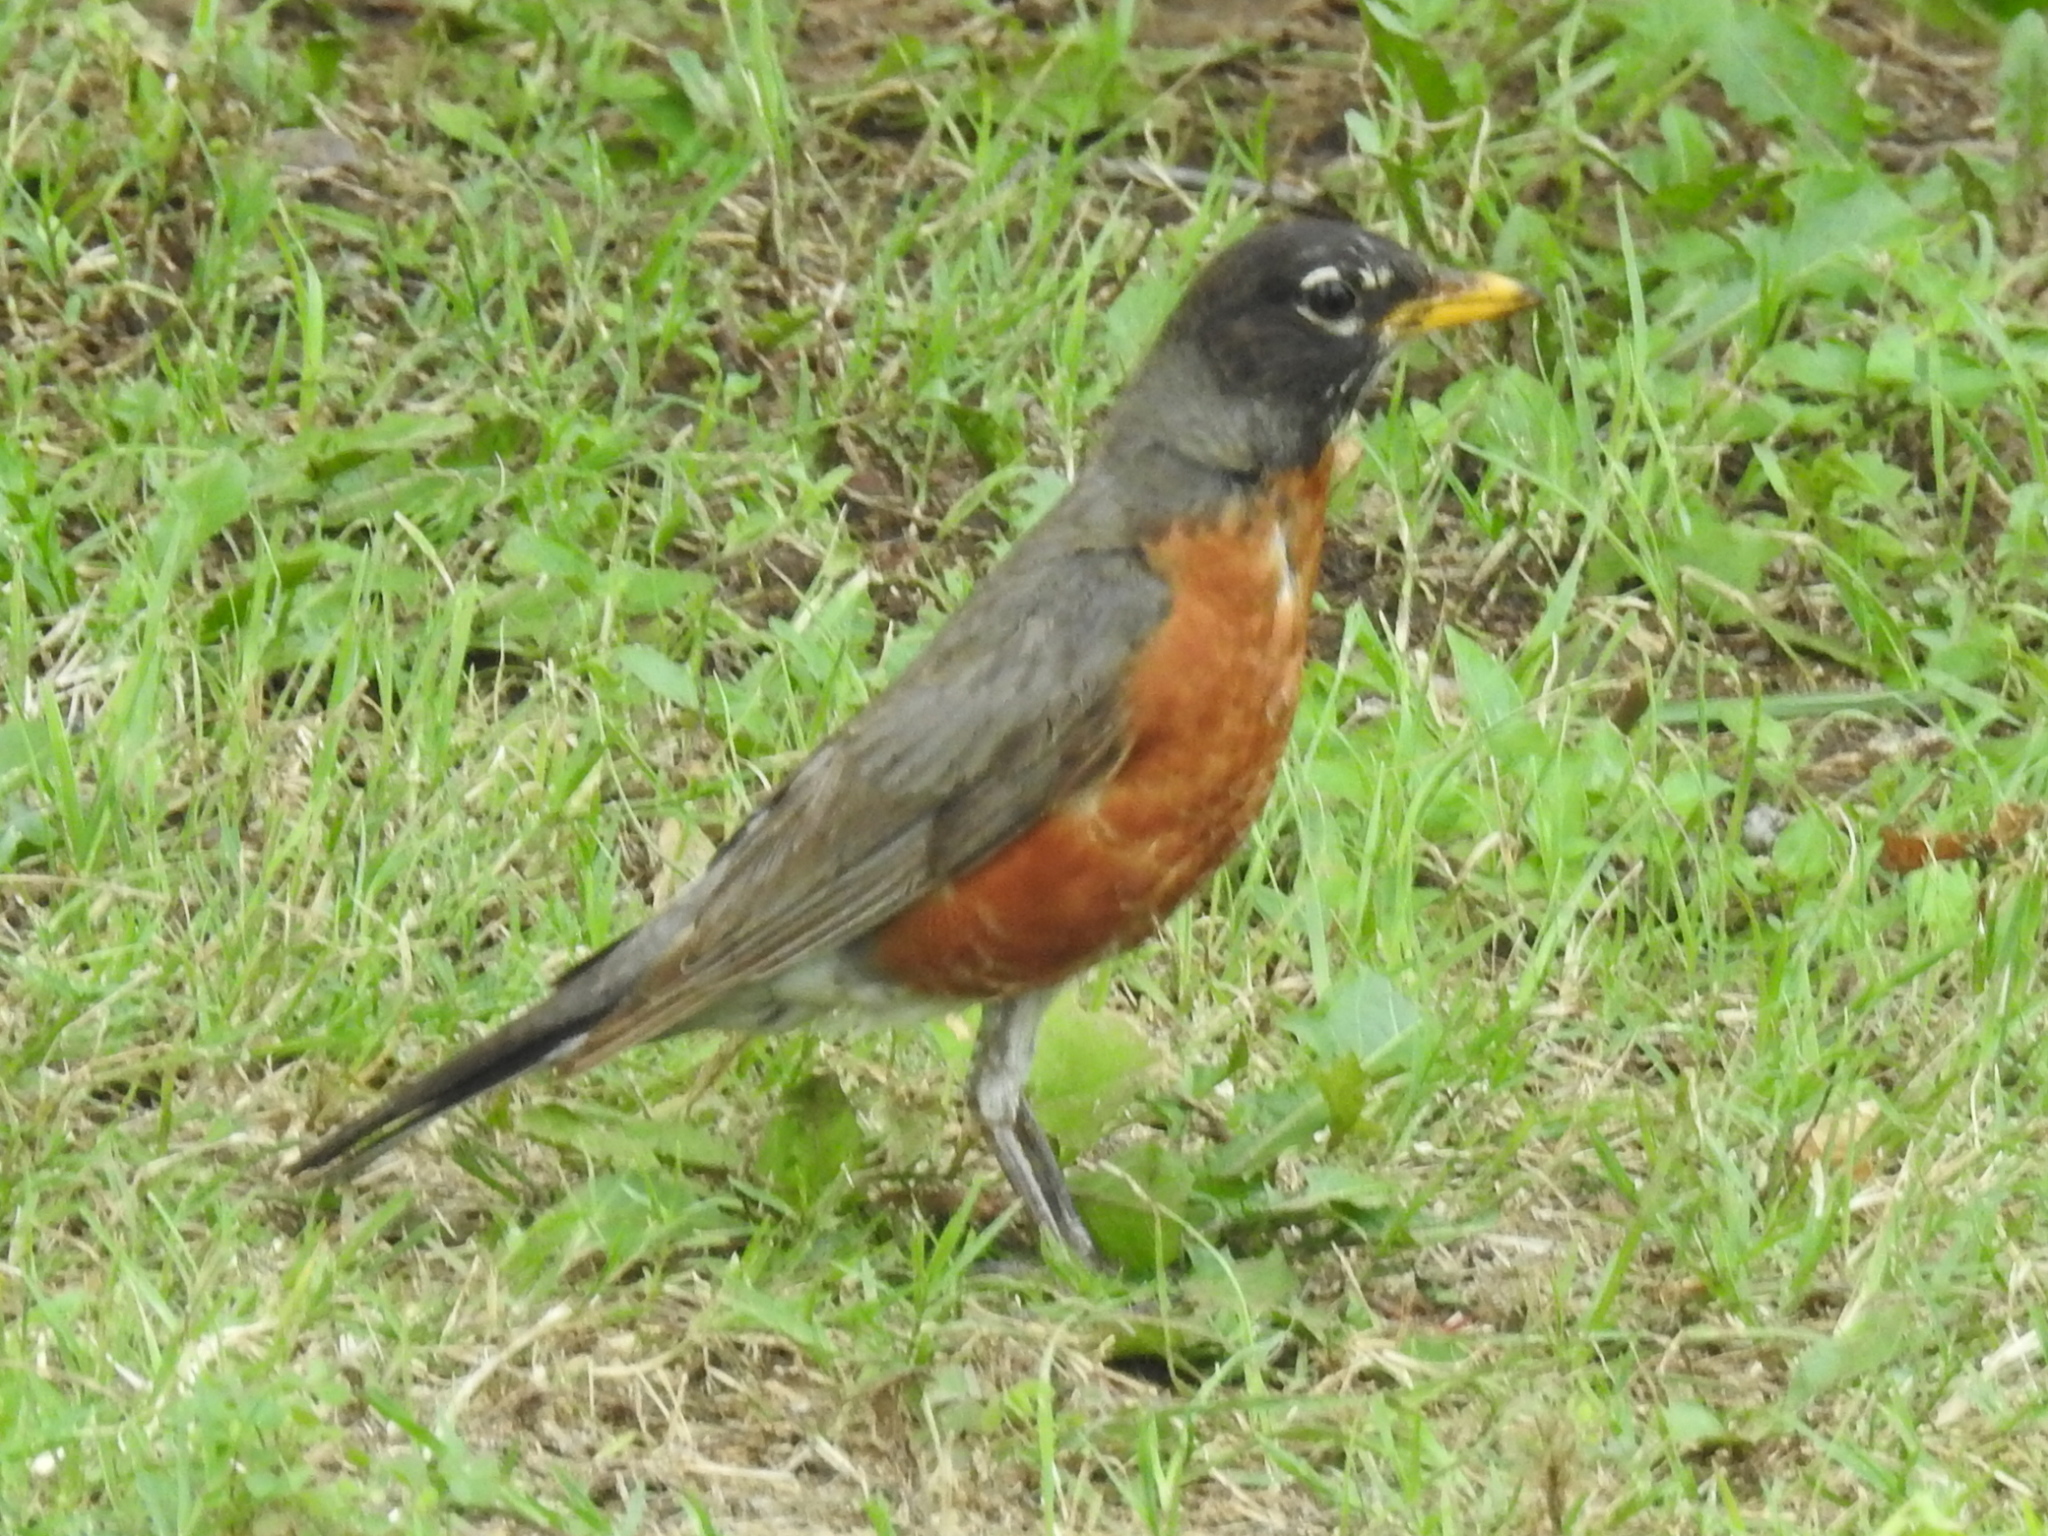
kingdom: Animalia
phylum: Chordata
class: Aves
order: Passeriformes
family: Turdidae
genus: Turdus
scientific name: Turdus migratorius
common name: American robin
